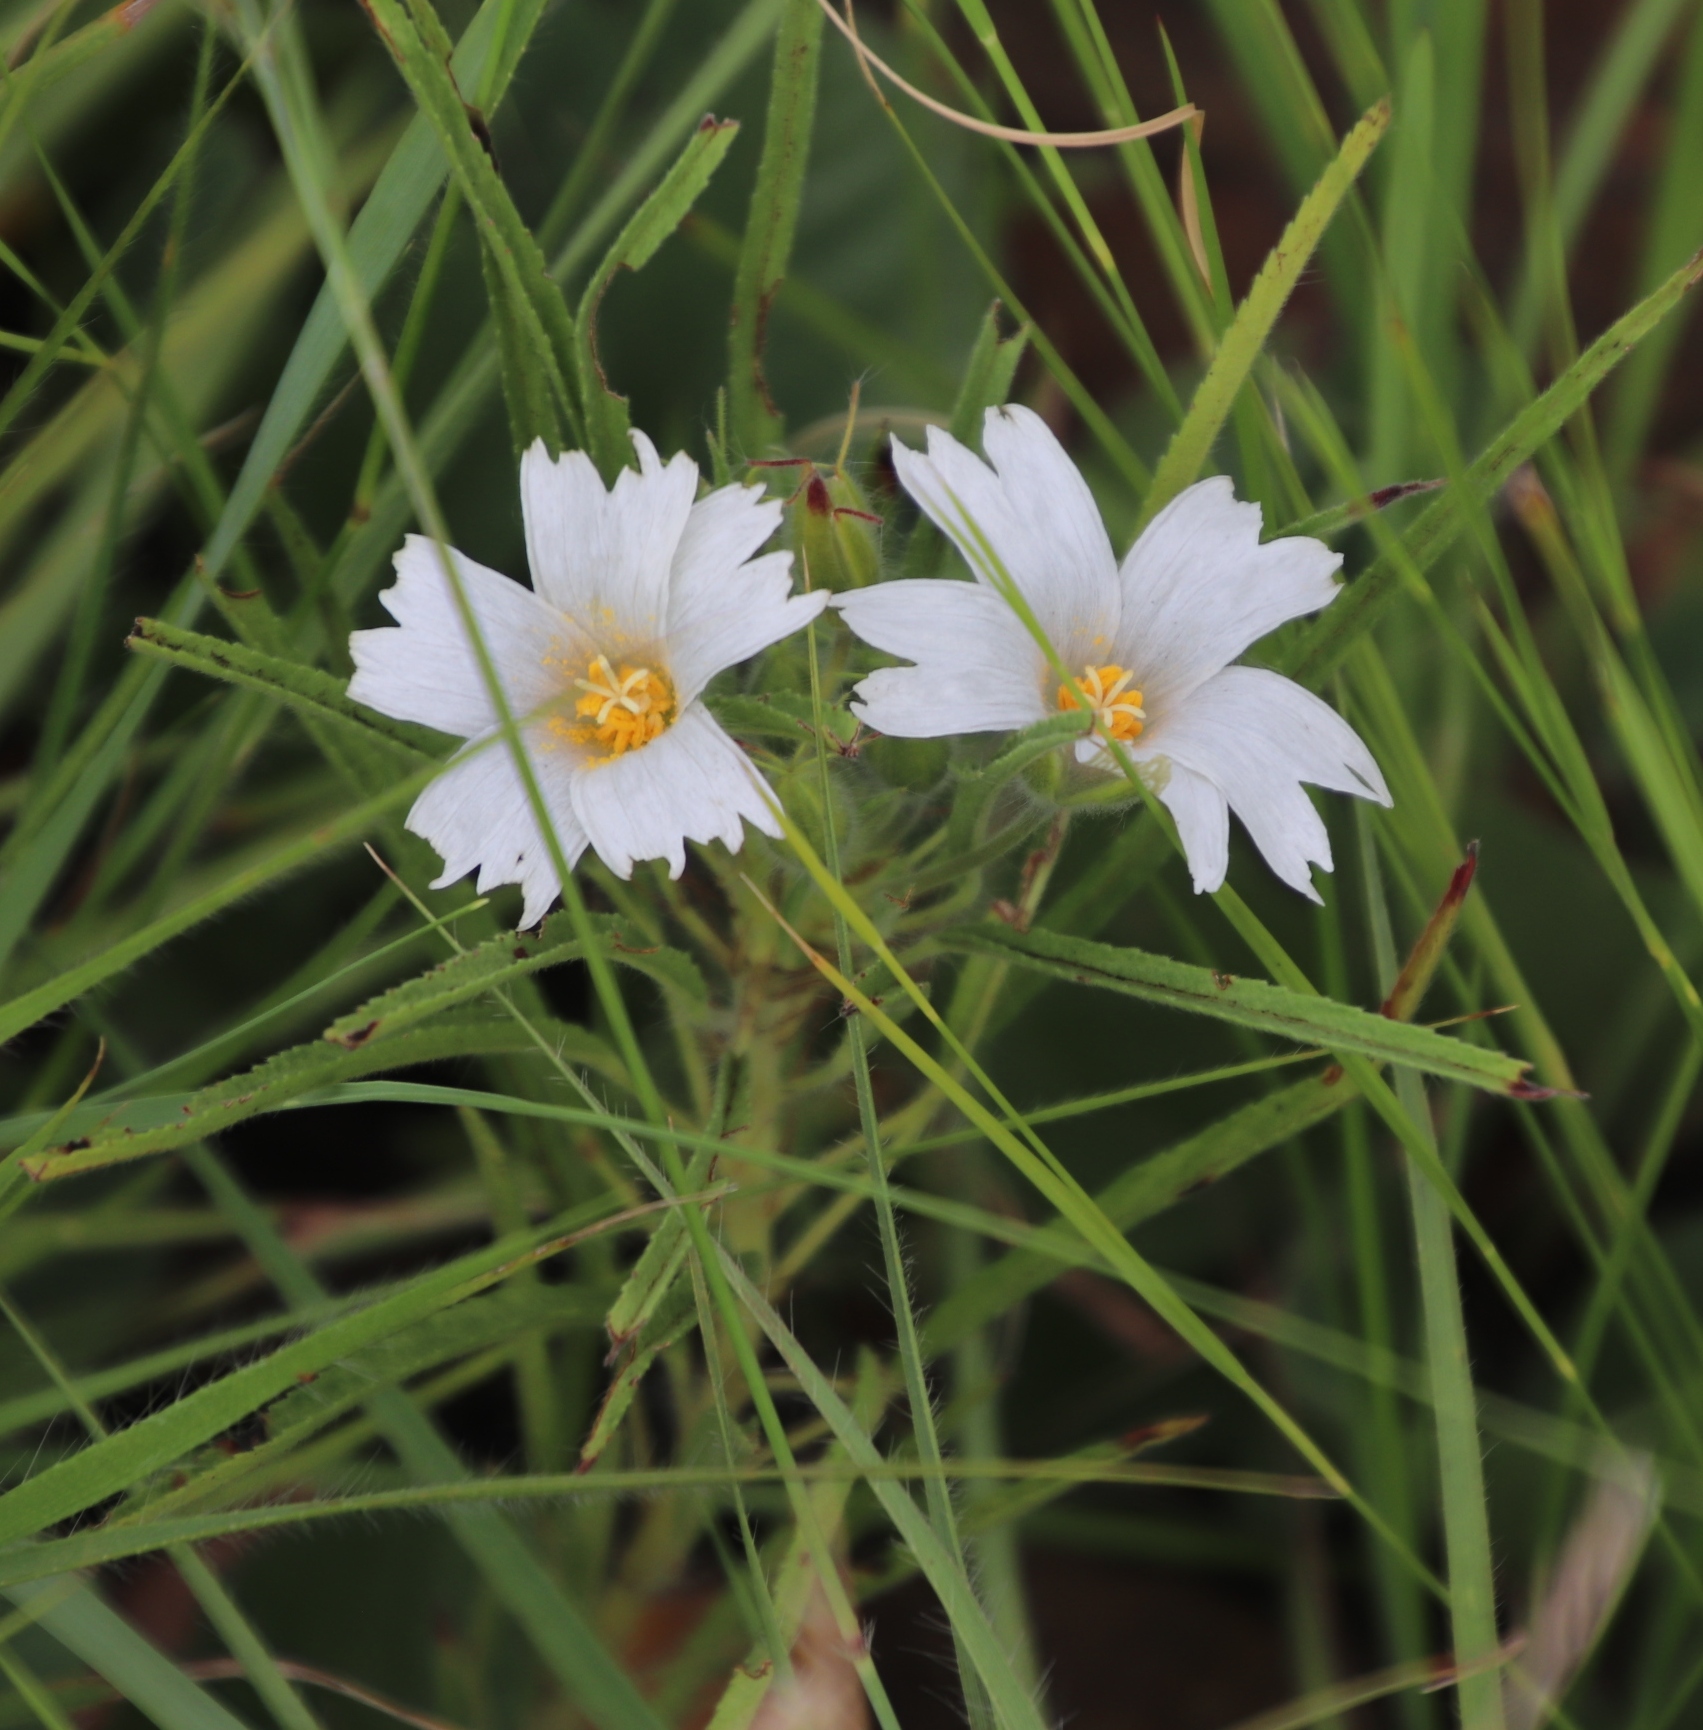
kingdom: Plantae
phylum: Tracheophyta
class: Magnoliopsida
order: Geraniales
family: Geraniaceae
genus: Monsonia
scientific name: Monsonia attenuata
